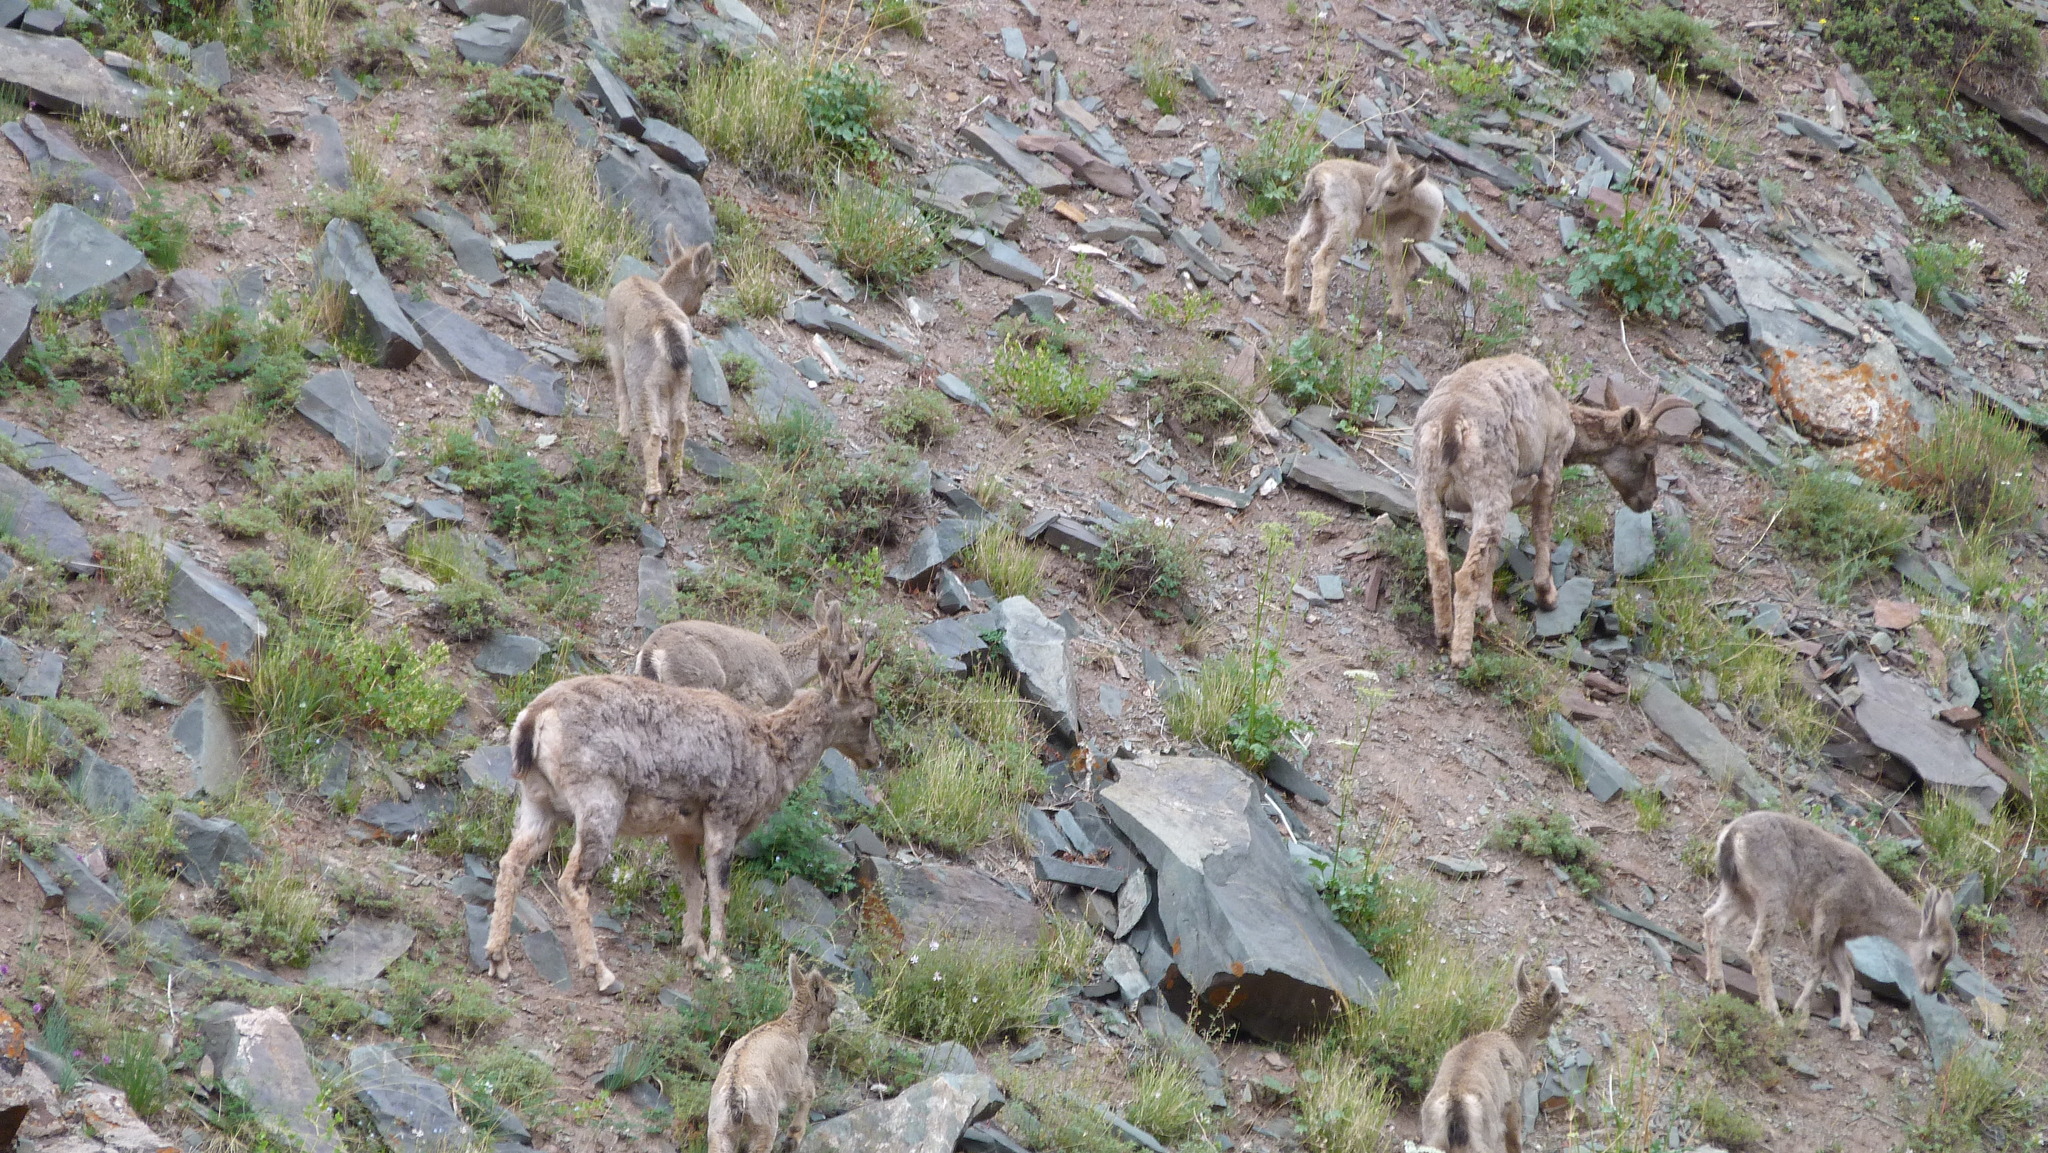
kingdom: Animalia
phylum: Chordata
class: Mammalia
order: Artiodactyla
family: Bovidae
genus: Pseudois
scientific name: Pseudois nayaur
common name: Bharal
